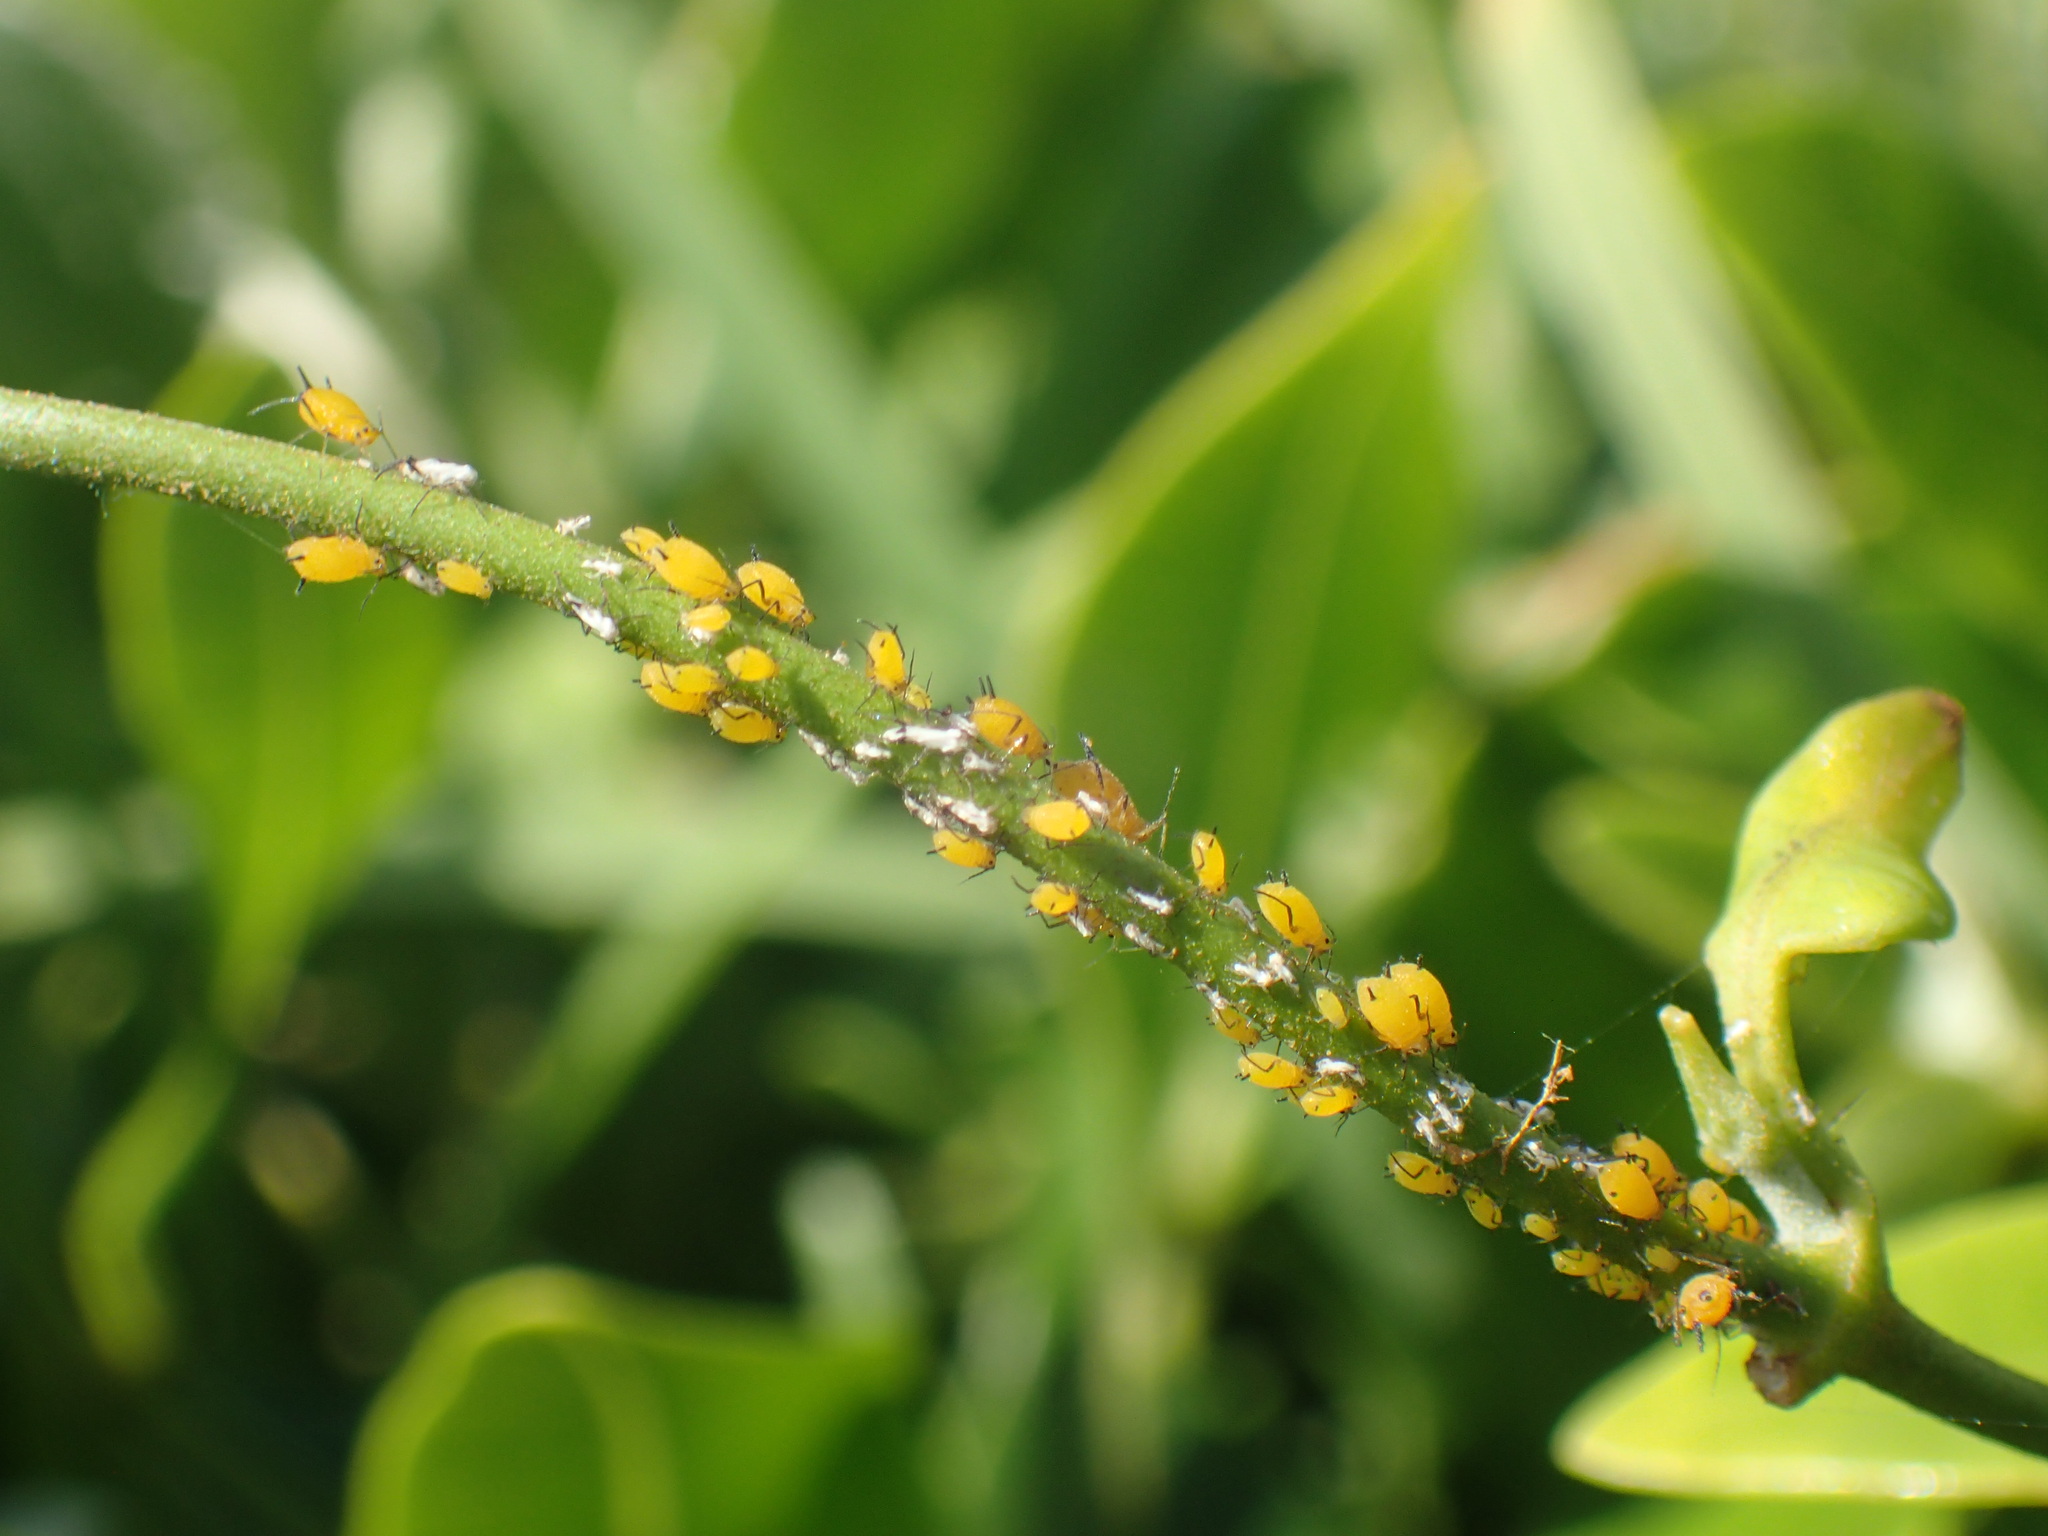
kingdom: Animalia
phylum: Arthropoda
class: Insecta
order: Hemiptera
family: Aphididae
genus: Aphis
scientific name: Aphis nerii
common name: Oleander aphid
